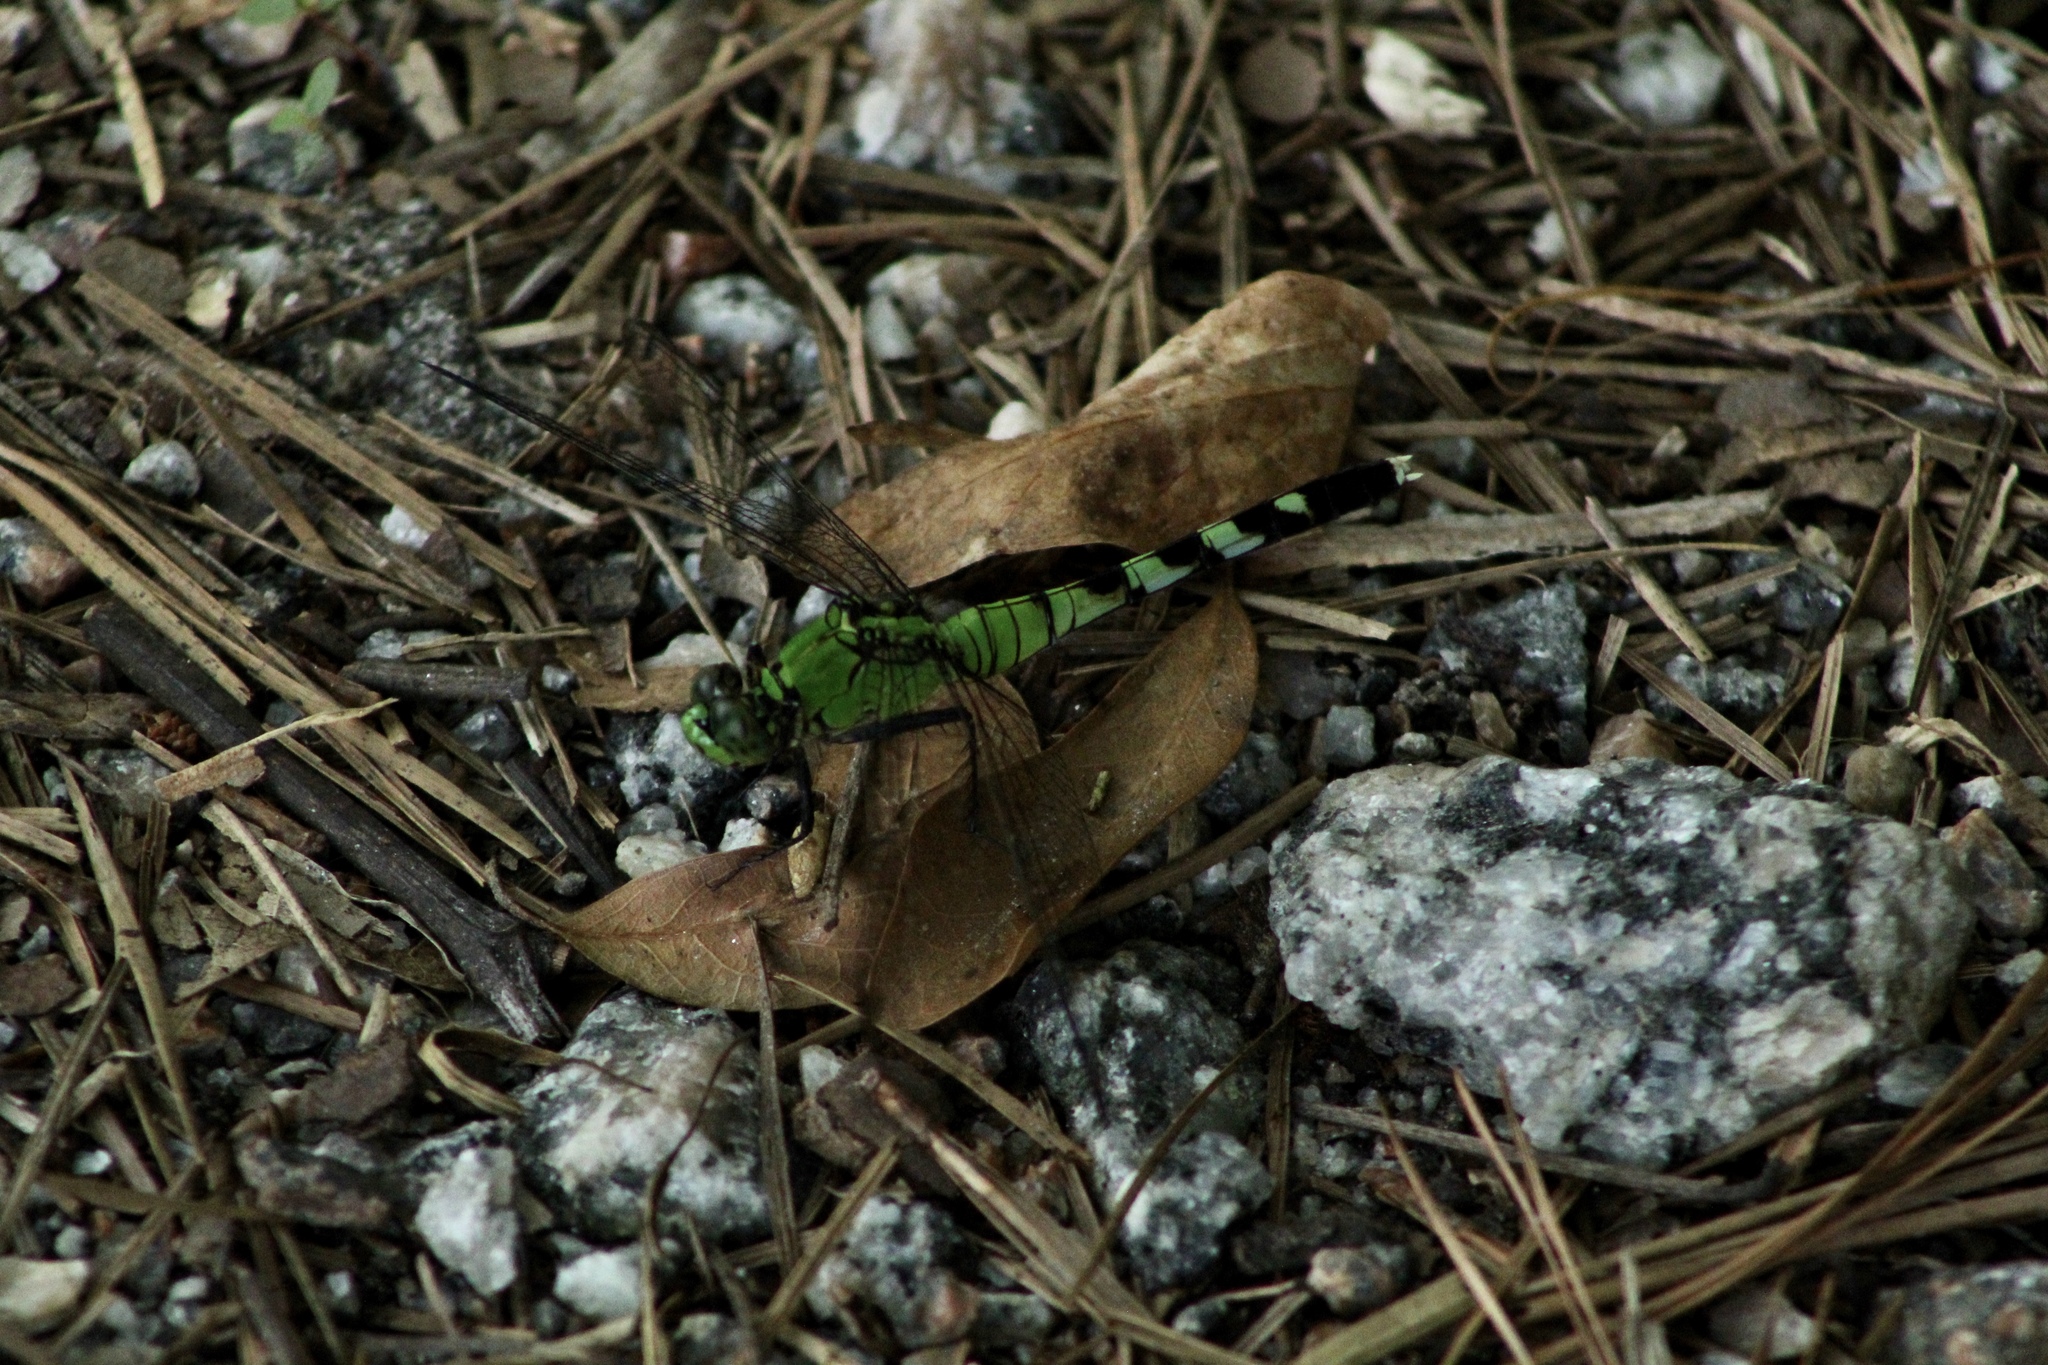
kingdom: Animalia
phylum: Arthropoda
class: Insecta
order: Odonata
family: Libellulidae
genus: Erythemis
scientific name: Erythemis simplicicollis
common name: Eastern pondhawk
